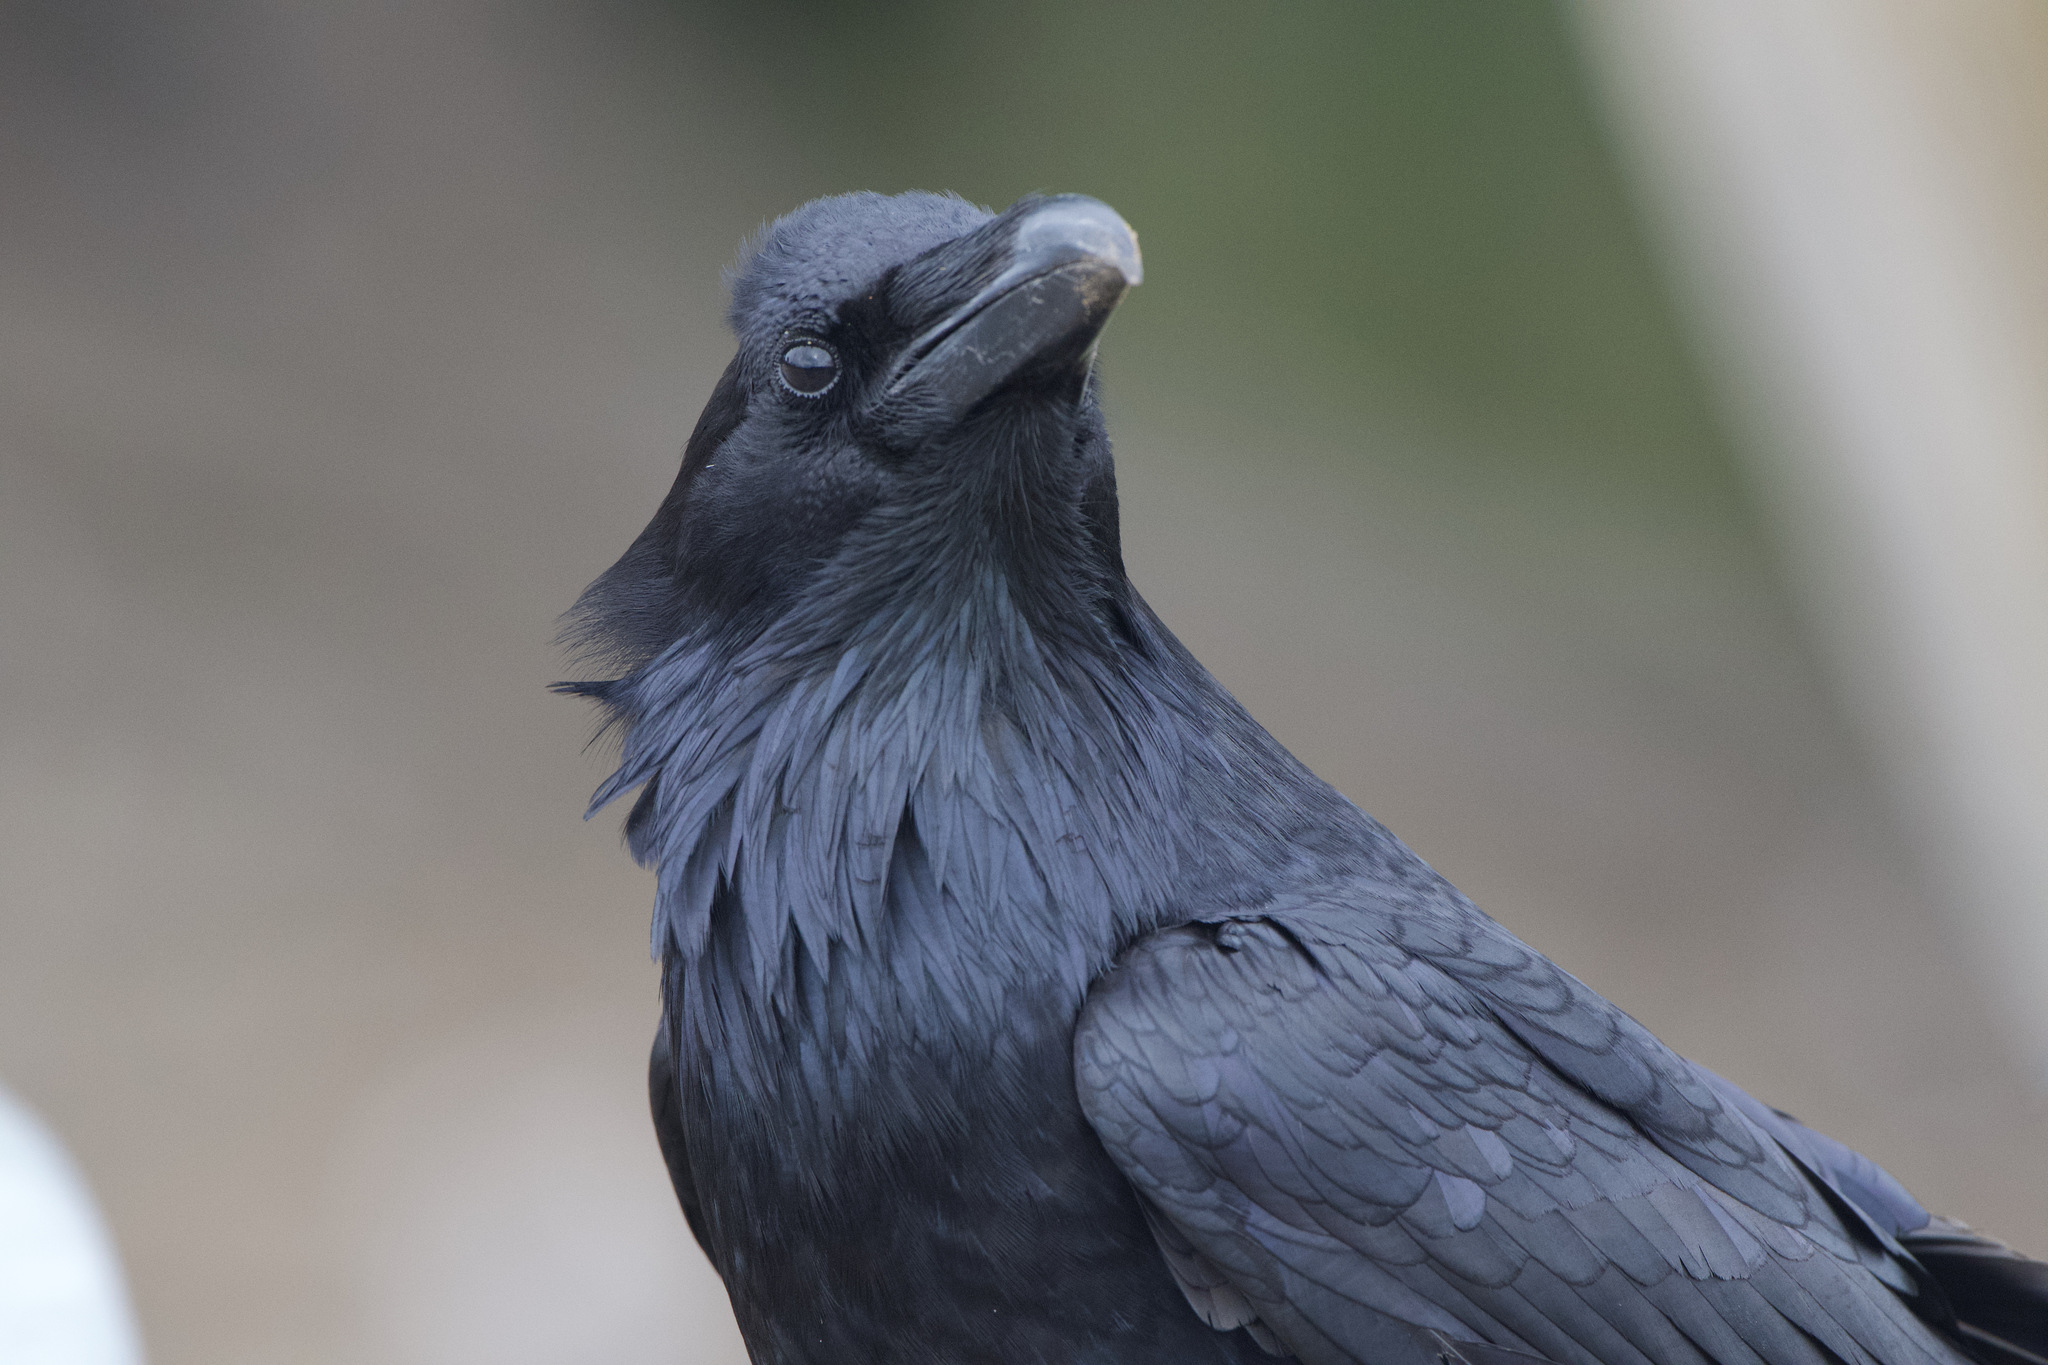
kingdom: Animalia
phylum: Chordata
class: Aves
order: Passeriformes
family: Corvidae
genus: Corvus
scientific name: Corvus corax
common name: Common raven
